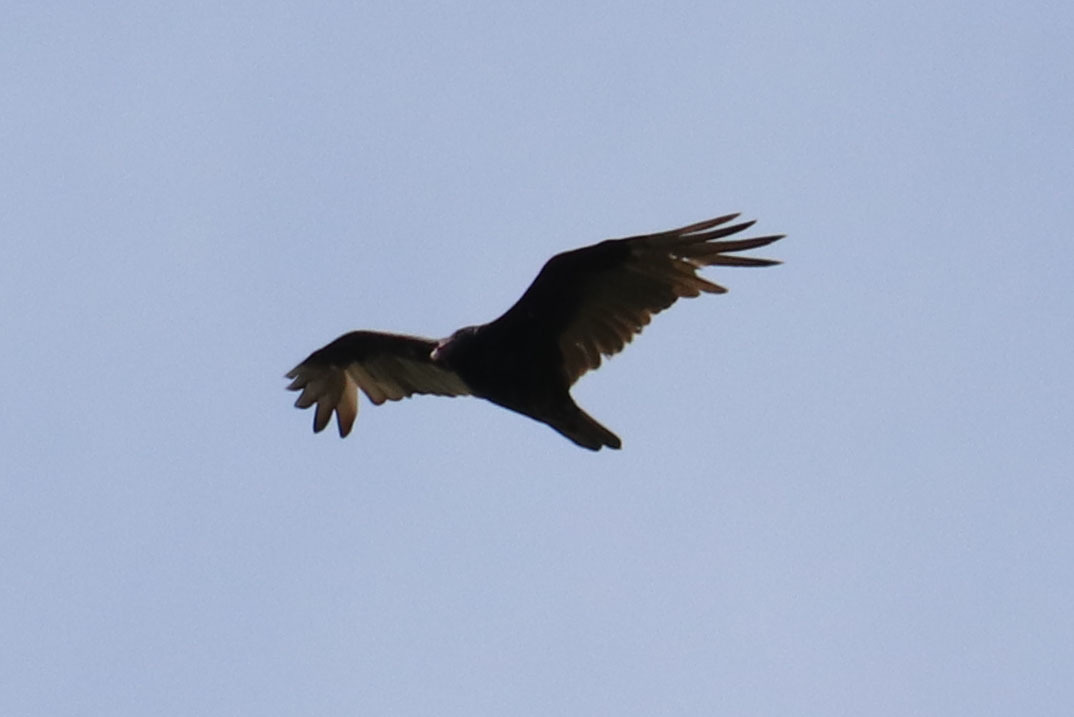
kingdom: Animalia
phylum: Chordata
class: Aves
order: Accipitriformes
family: Cathartidae
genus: Cathartes
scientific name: Cathartes aura
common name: Turkey vulture
